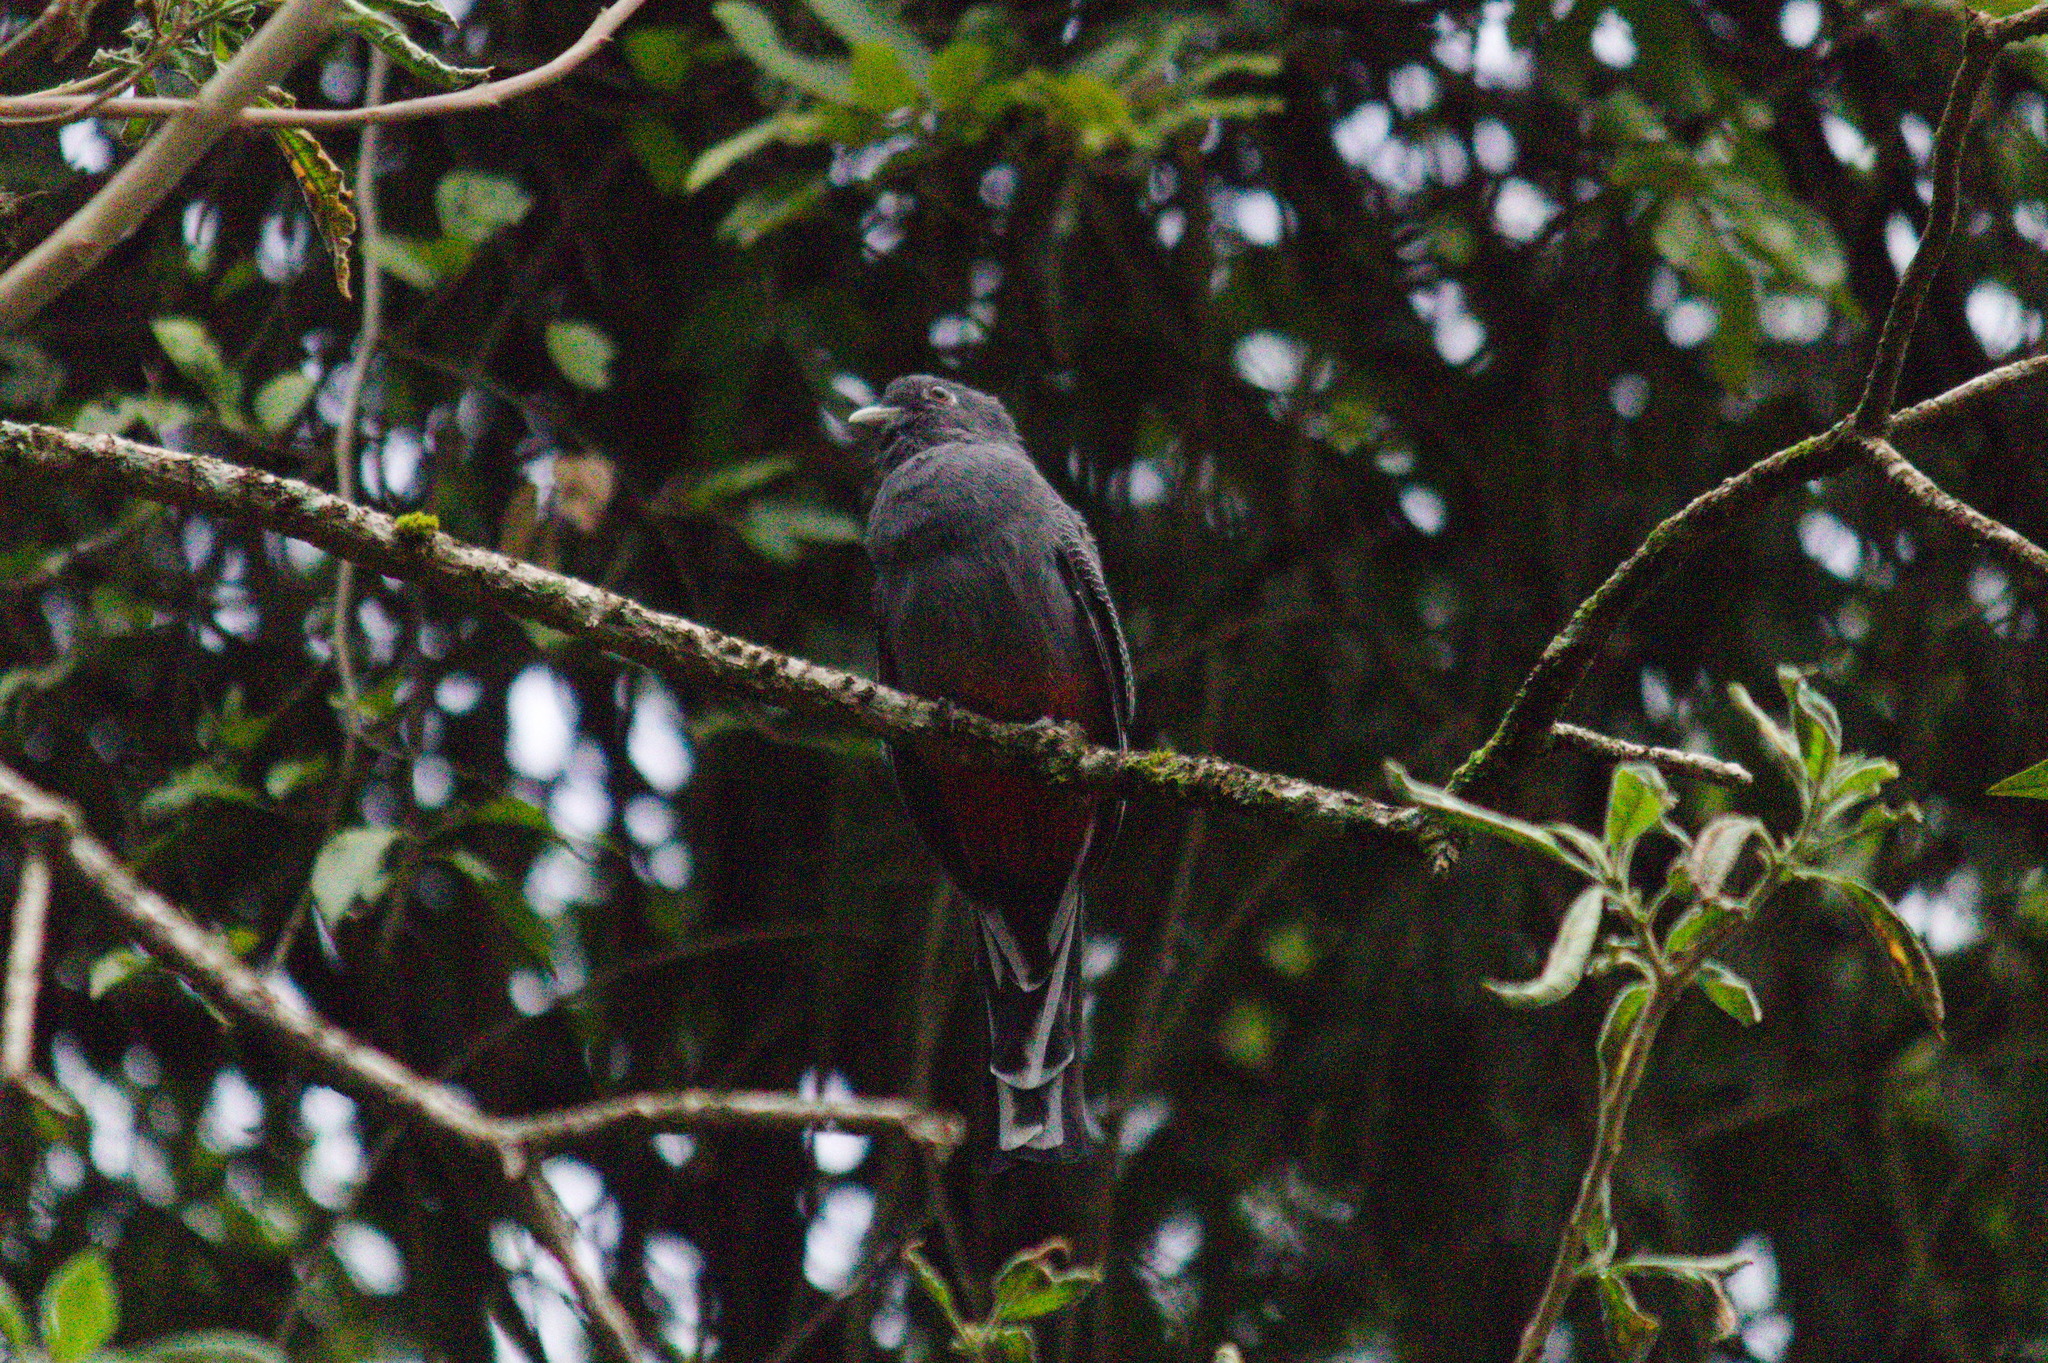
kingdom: Animalia
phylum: Chordata
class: Aves
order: Trogoniformes
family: Trogonidae
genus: Trogon
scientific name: Trogon surrucura
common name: Surucua trogon
